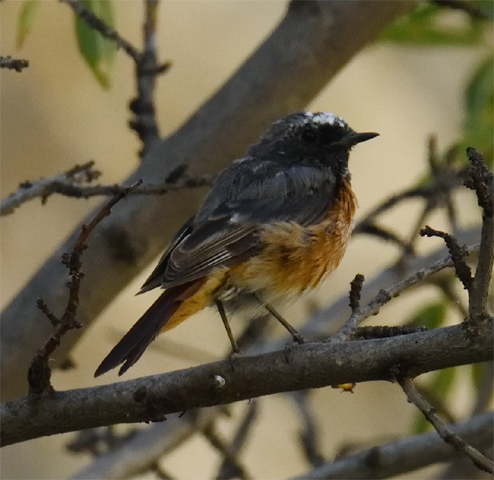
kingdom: Animalia
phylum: Chordata
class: Aves
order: Passeriformes
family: Muscicapidae
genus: Phoenicurus
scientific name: Phoenicurus phoenicurus
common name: Common redstart
